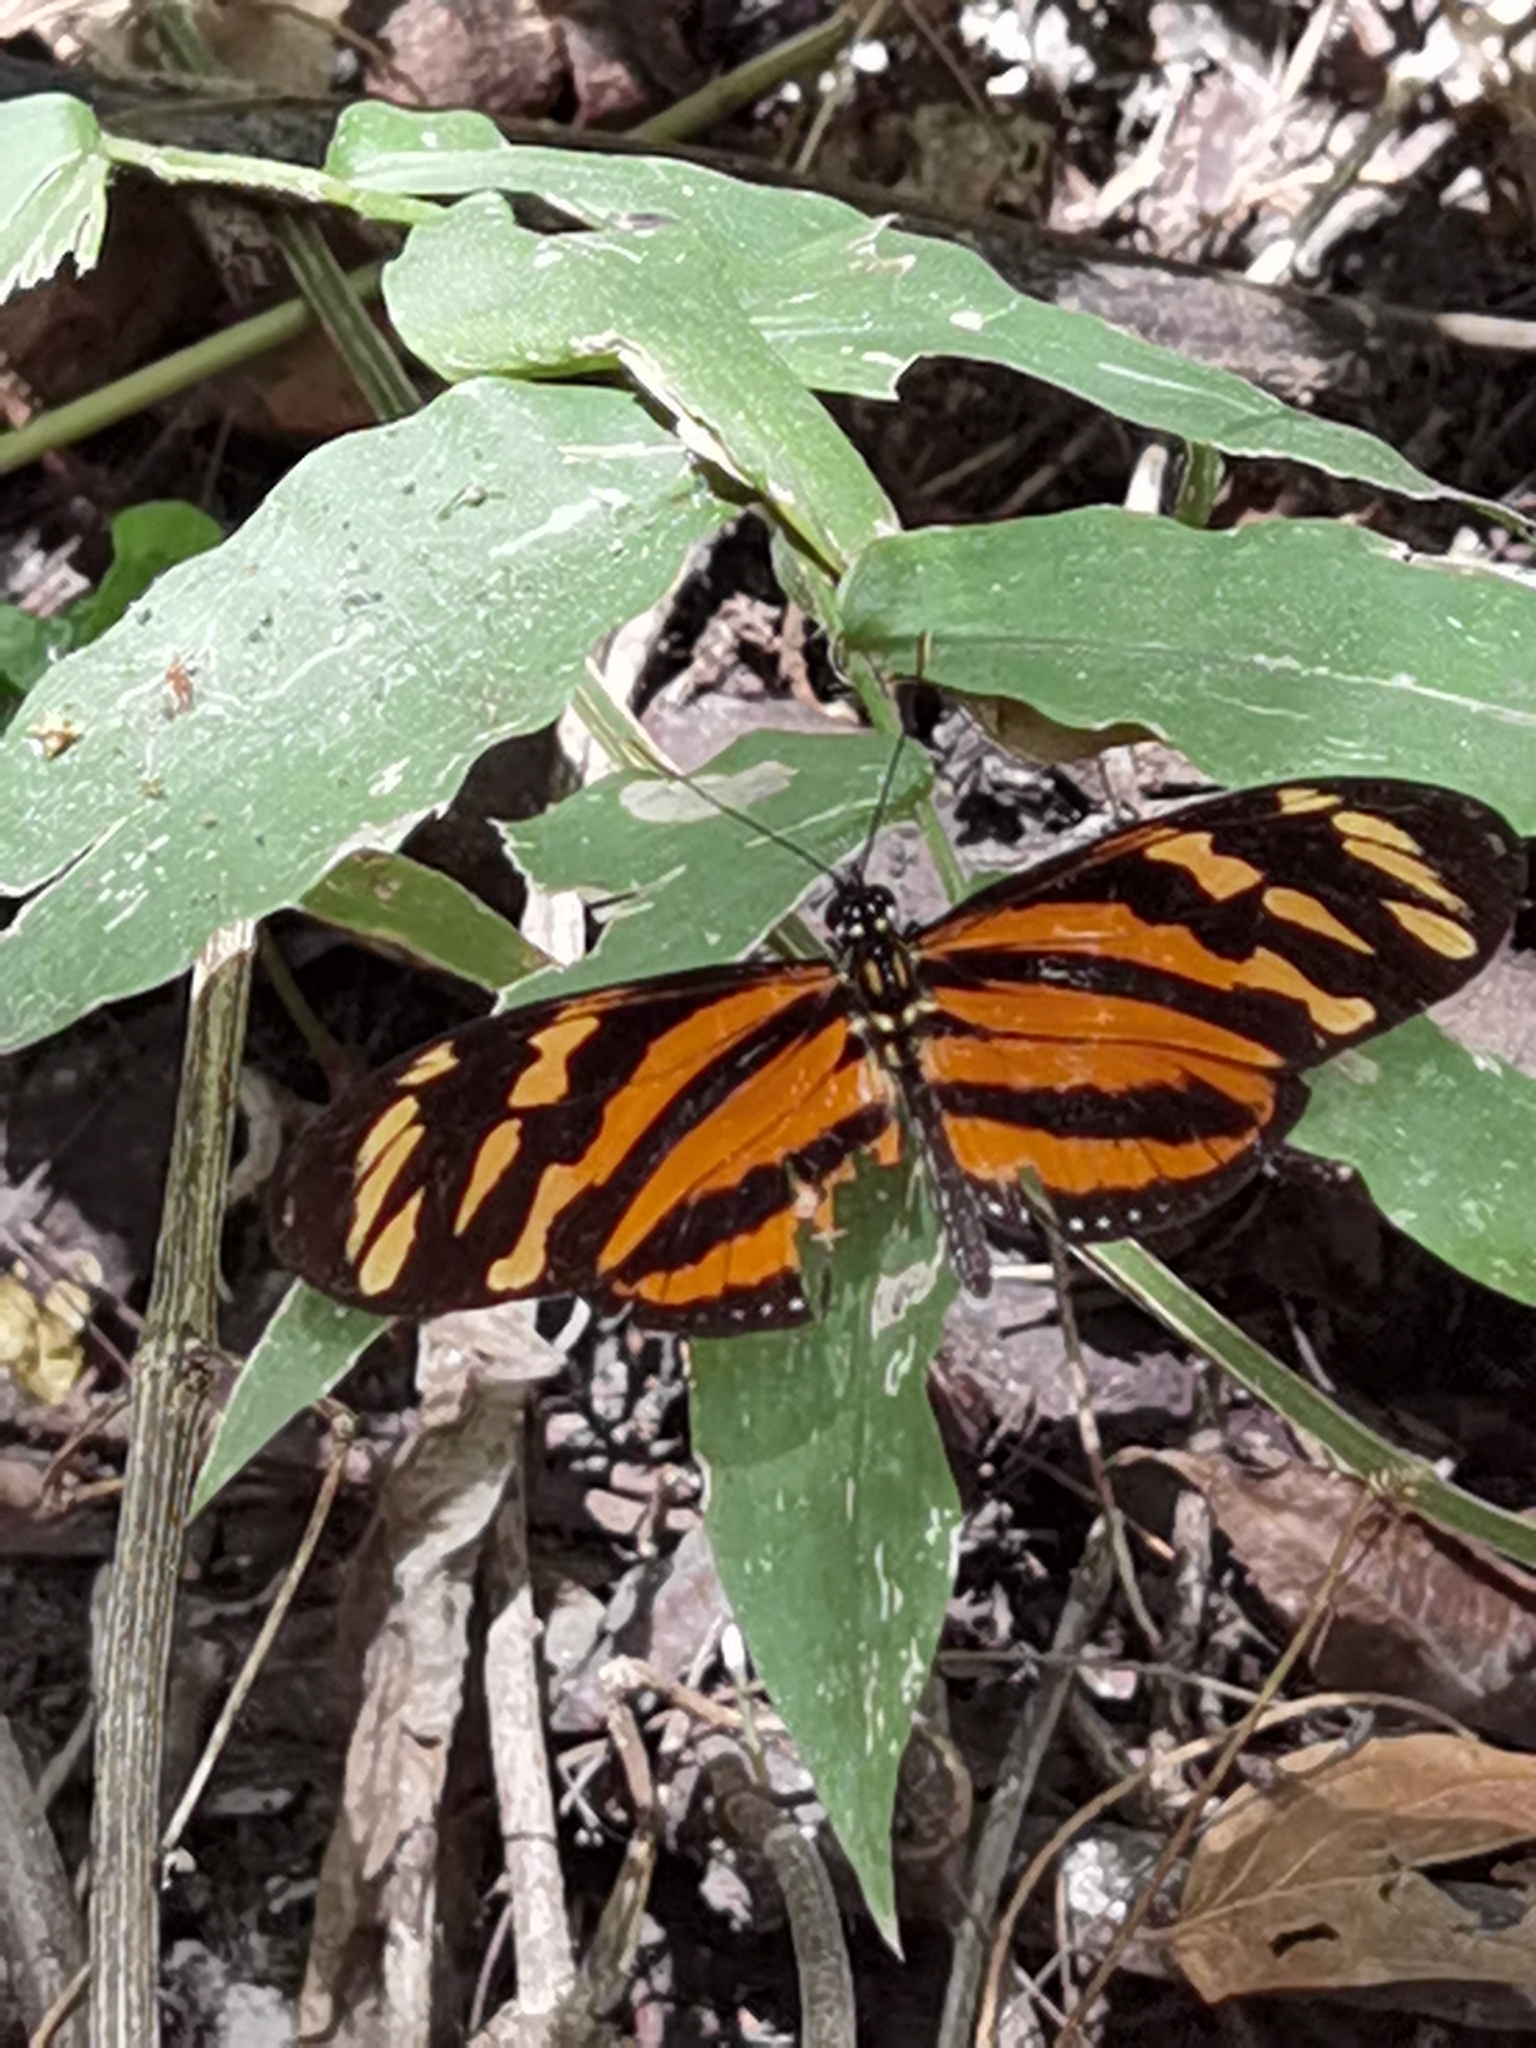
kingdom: Animalia
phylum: Arthropoda
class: Insecta
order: Lepidoptera
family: Nymphalidae
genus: Eueides
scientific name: Eueides isabella
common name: Isabella's longwing
